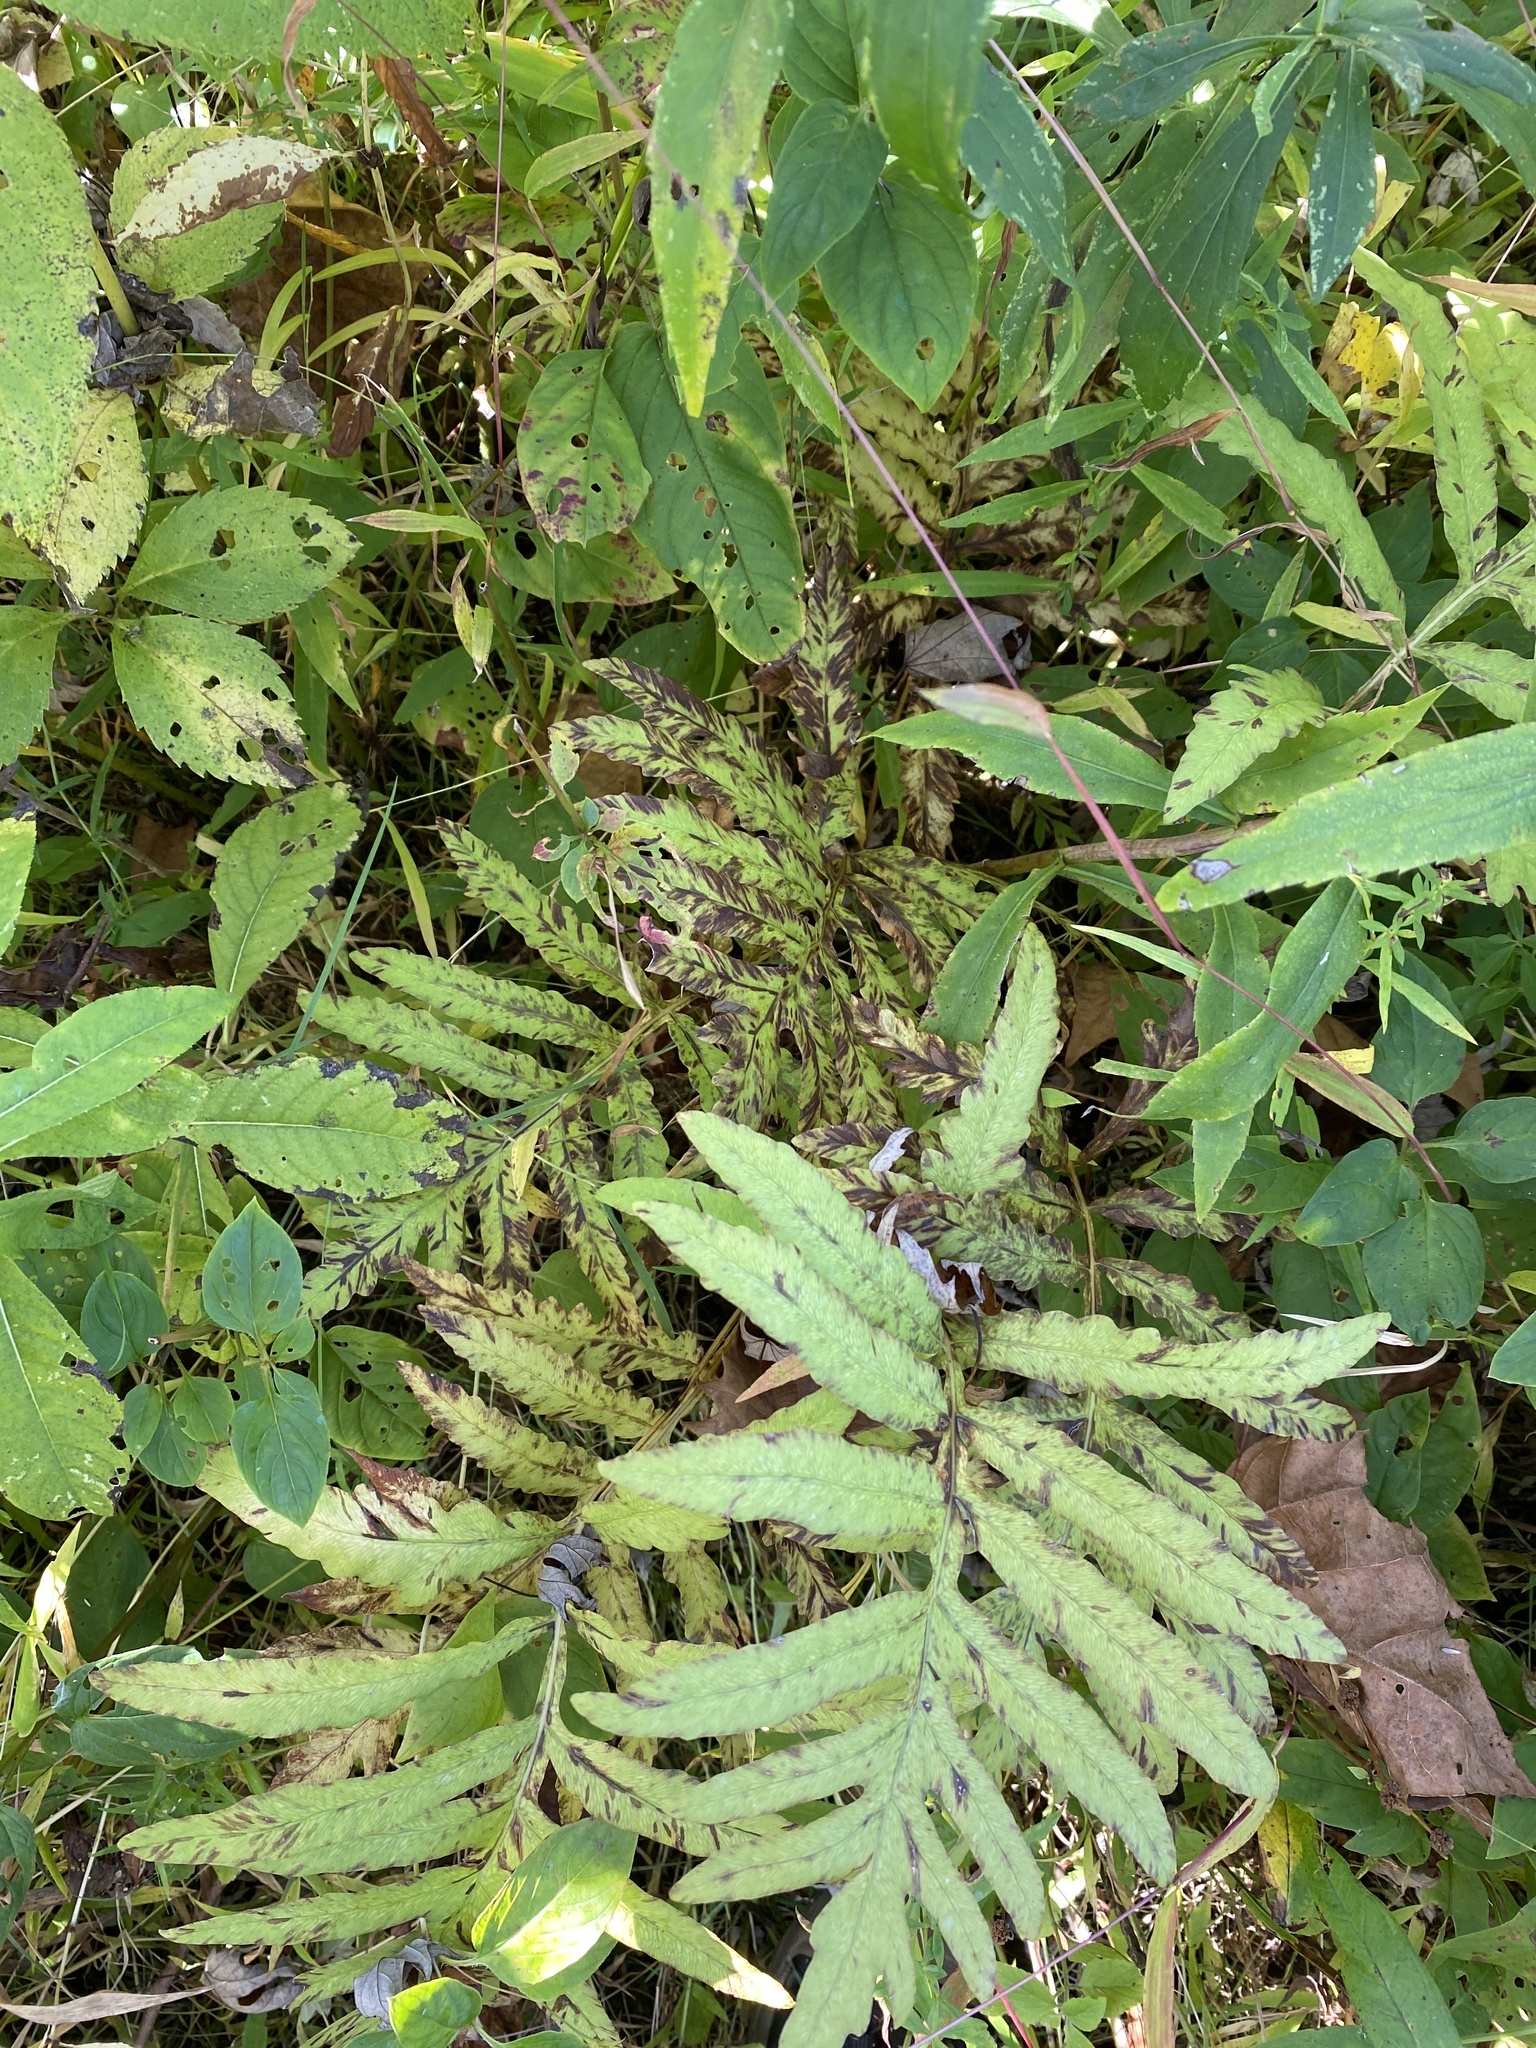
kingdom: Plantae
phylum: Tracheophyta
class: Polypodiopsida
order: Polypodiales
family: Onocleaceae
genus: Onoclea
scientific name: Onoclea sensibilis
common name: Sensitive fern
